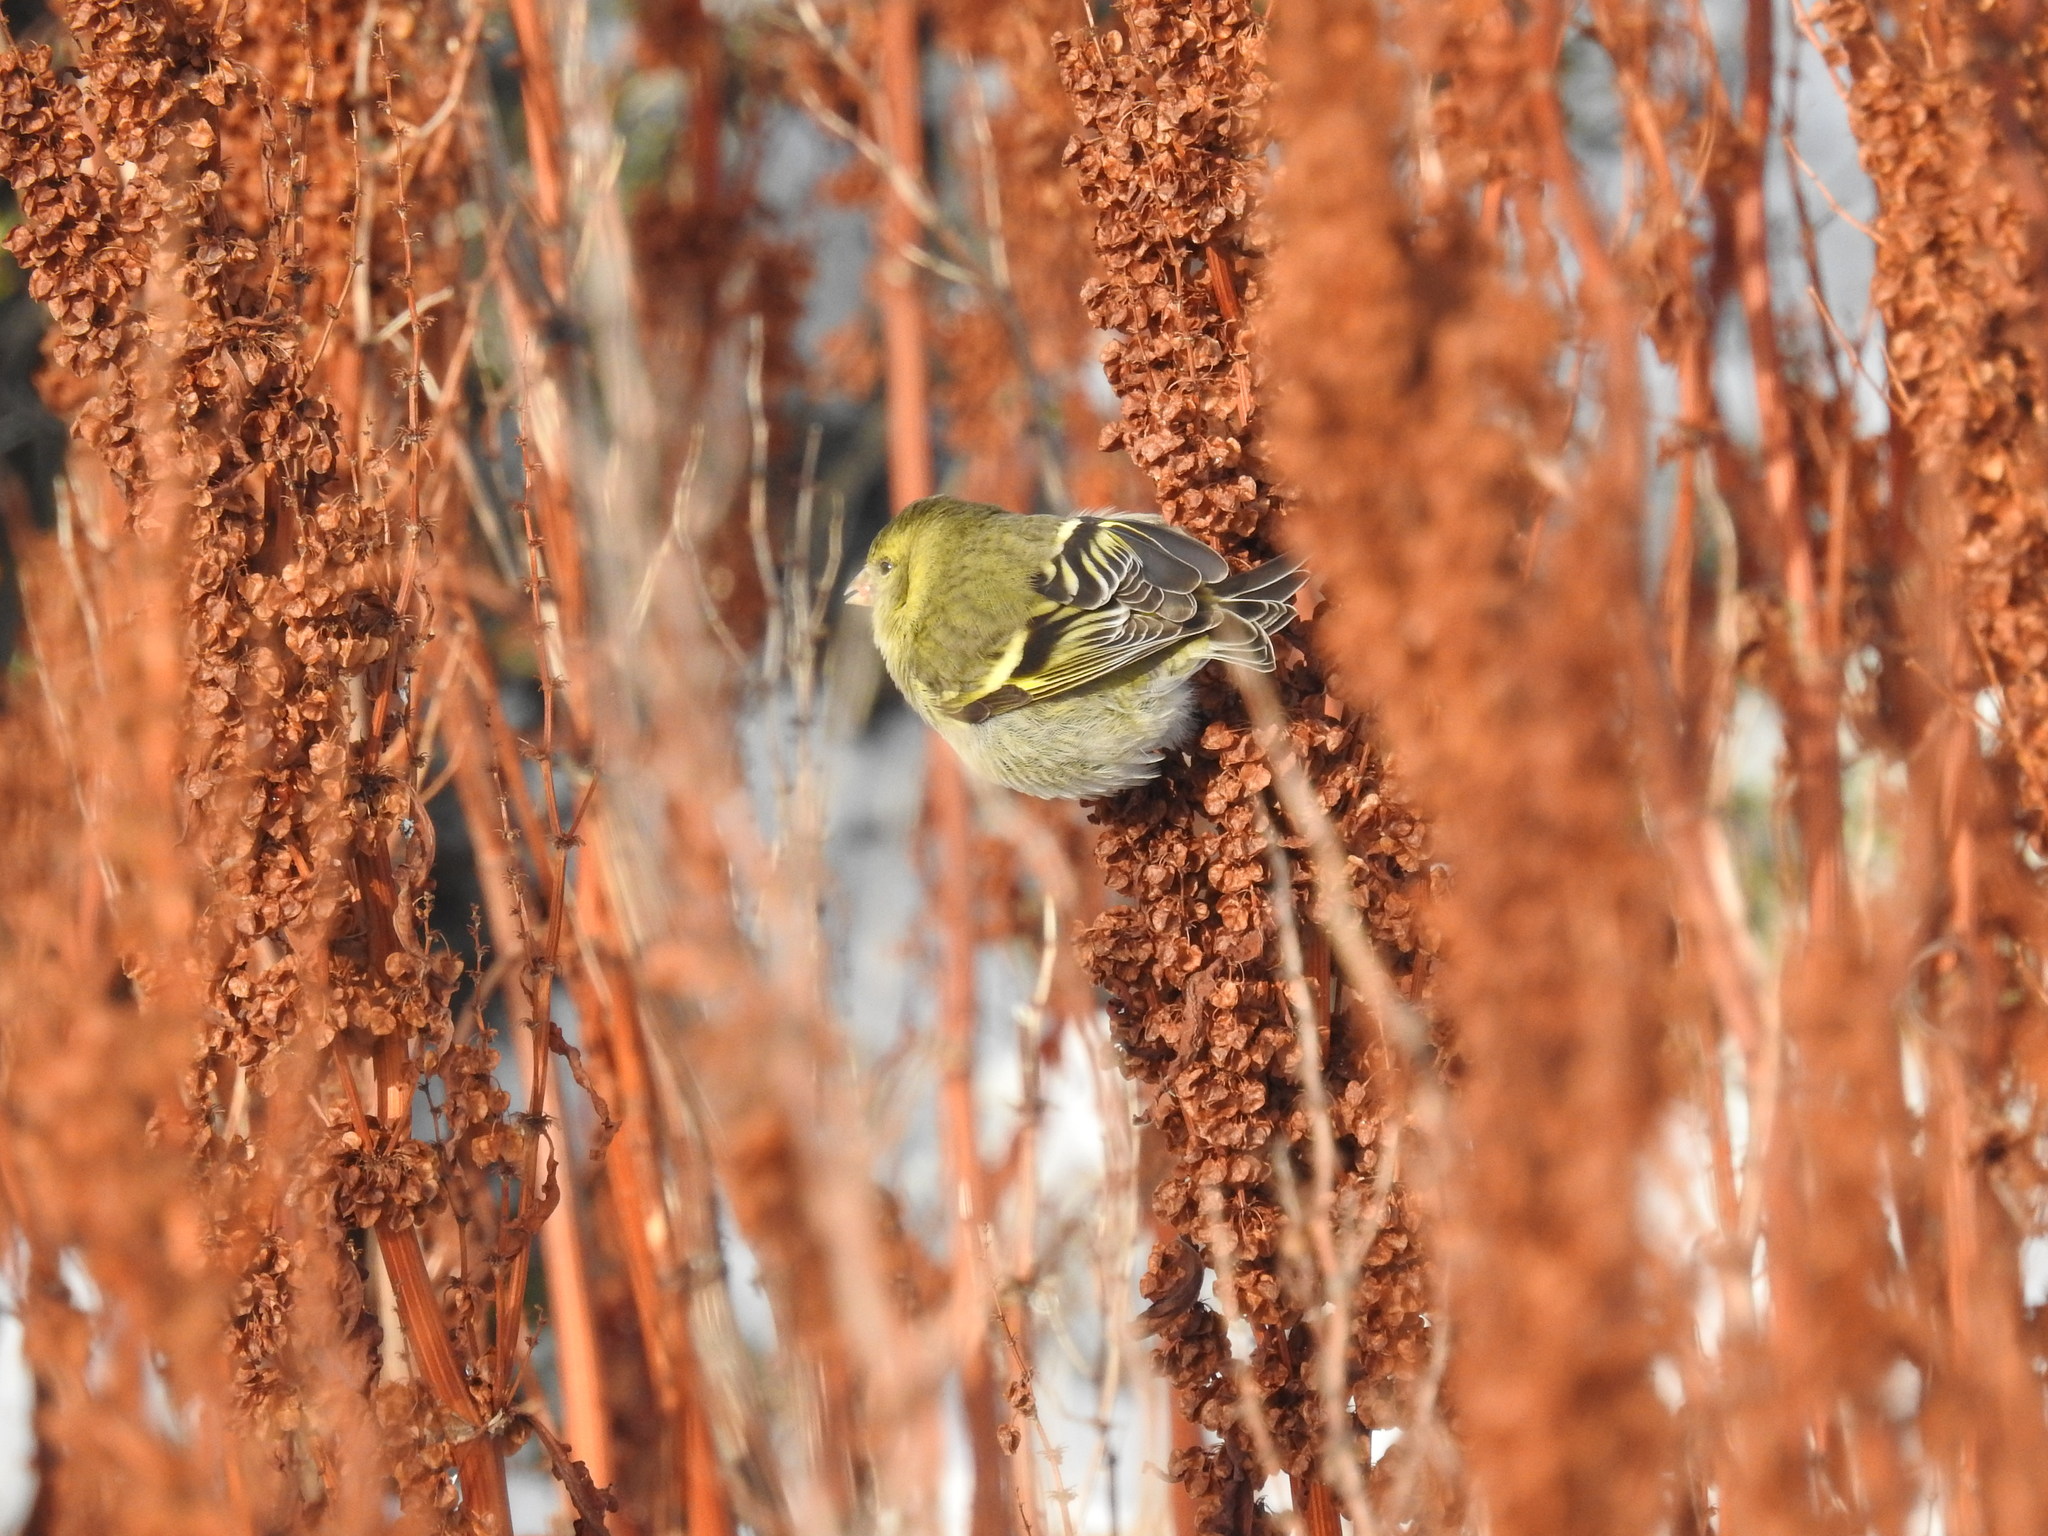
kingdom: Animalia
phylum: Chordata
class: Aves
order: Passeriformes
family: Fringillidae
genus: Spinus
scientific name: Spinus barbatus
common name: Black-chinned siskin
